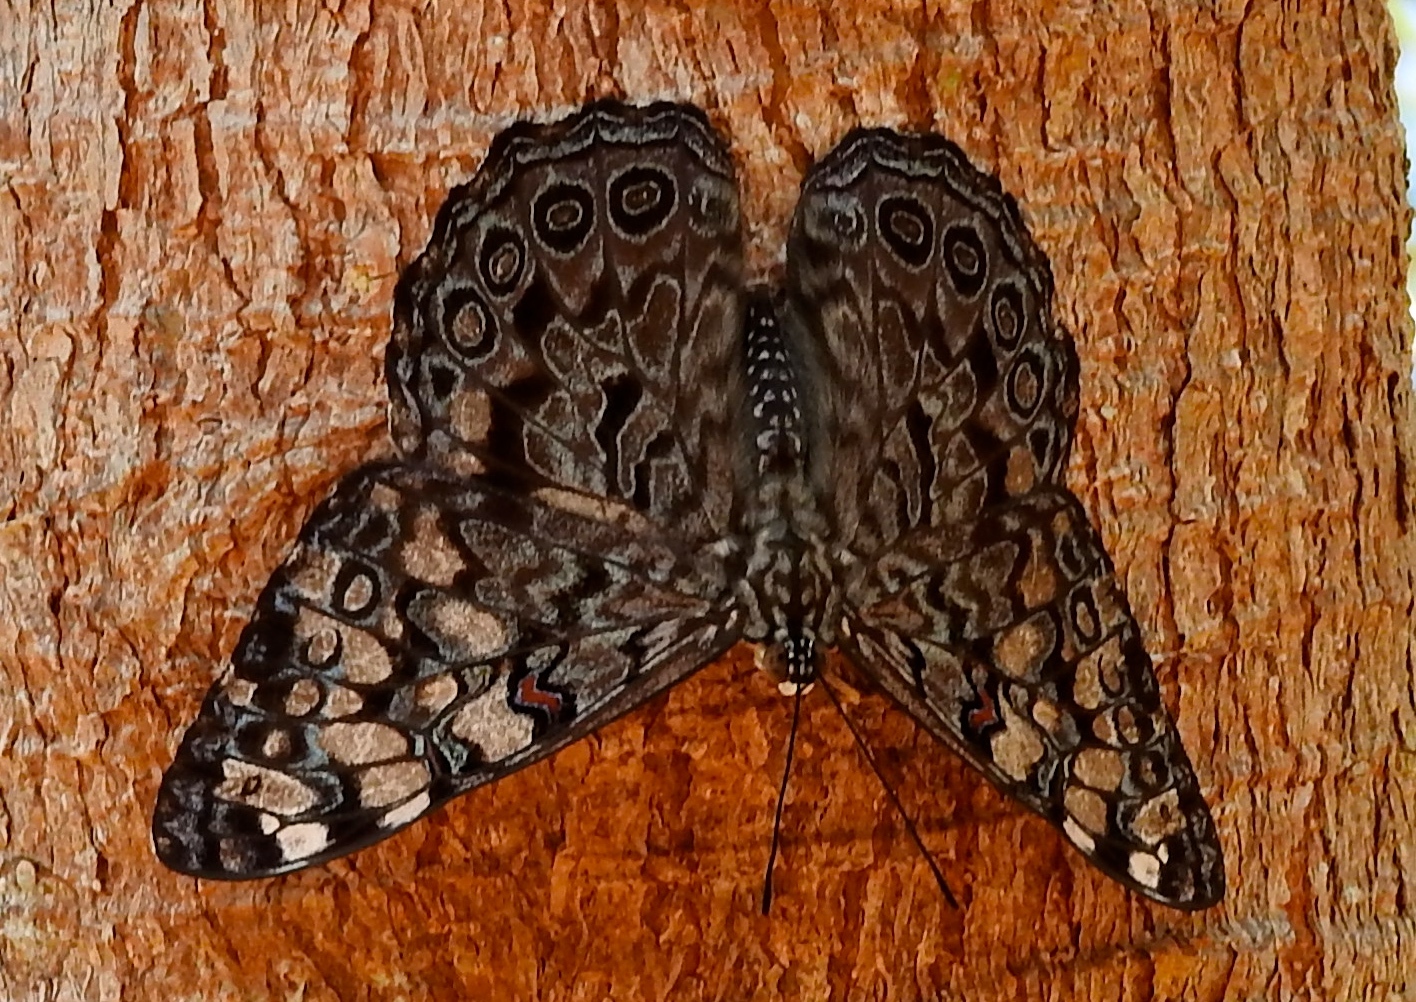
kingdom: Animalia
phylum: Arthropoda
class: Insecta
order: Lepidoptera
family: Nymphalidae
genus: Hamadryas
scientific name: Hamadryas guatemalena
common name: Guatemalan cracker
